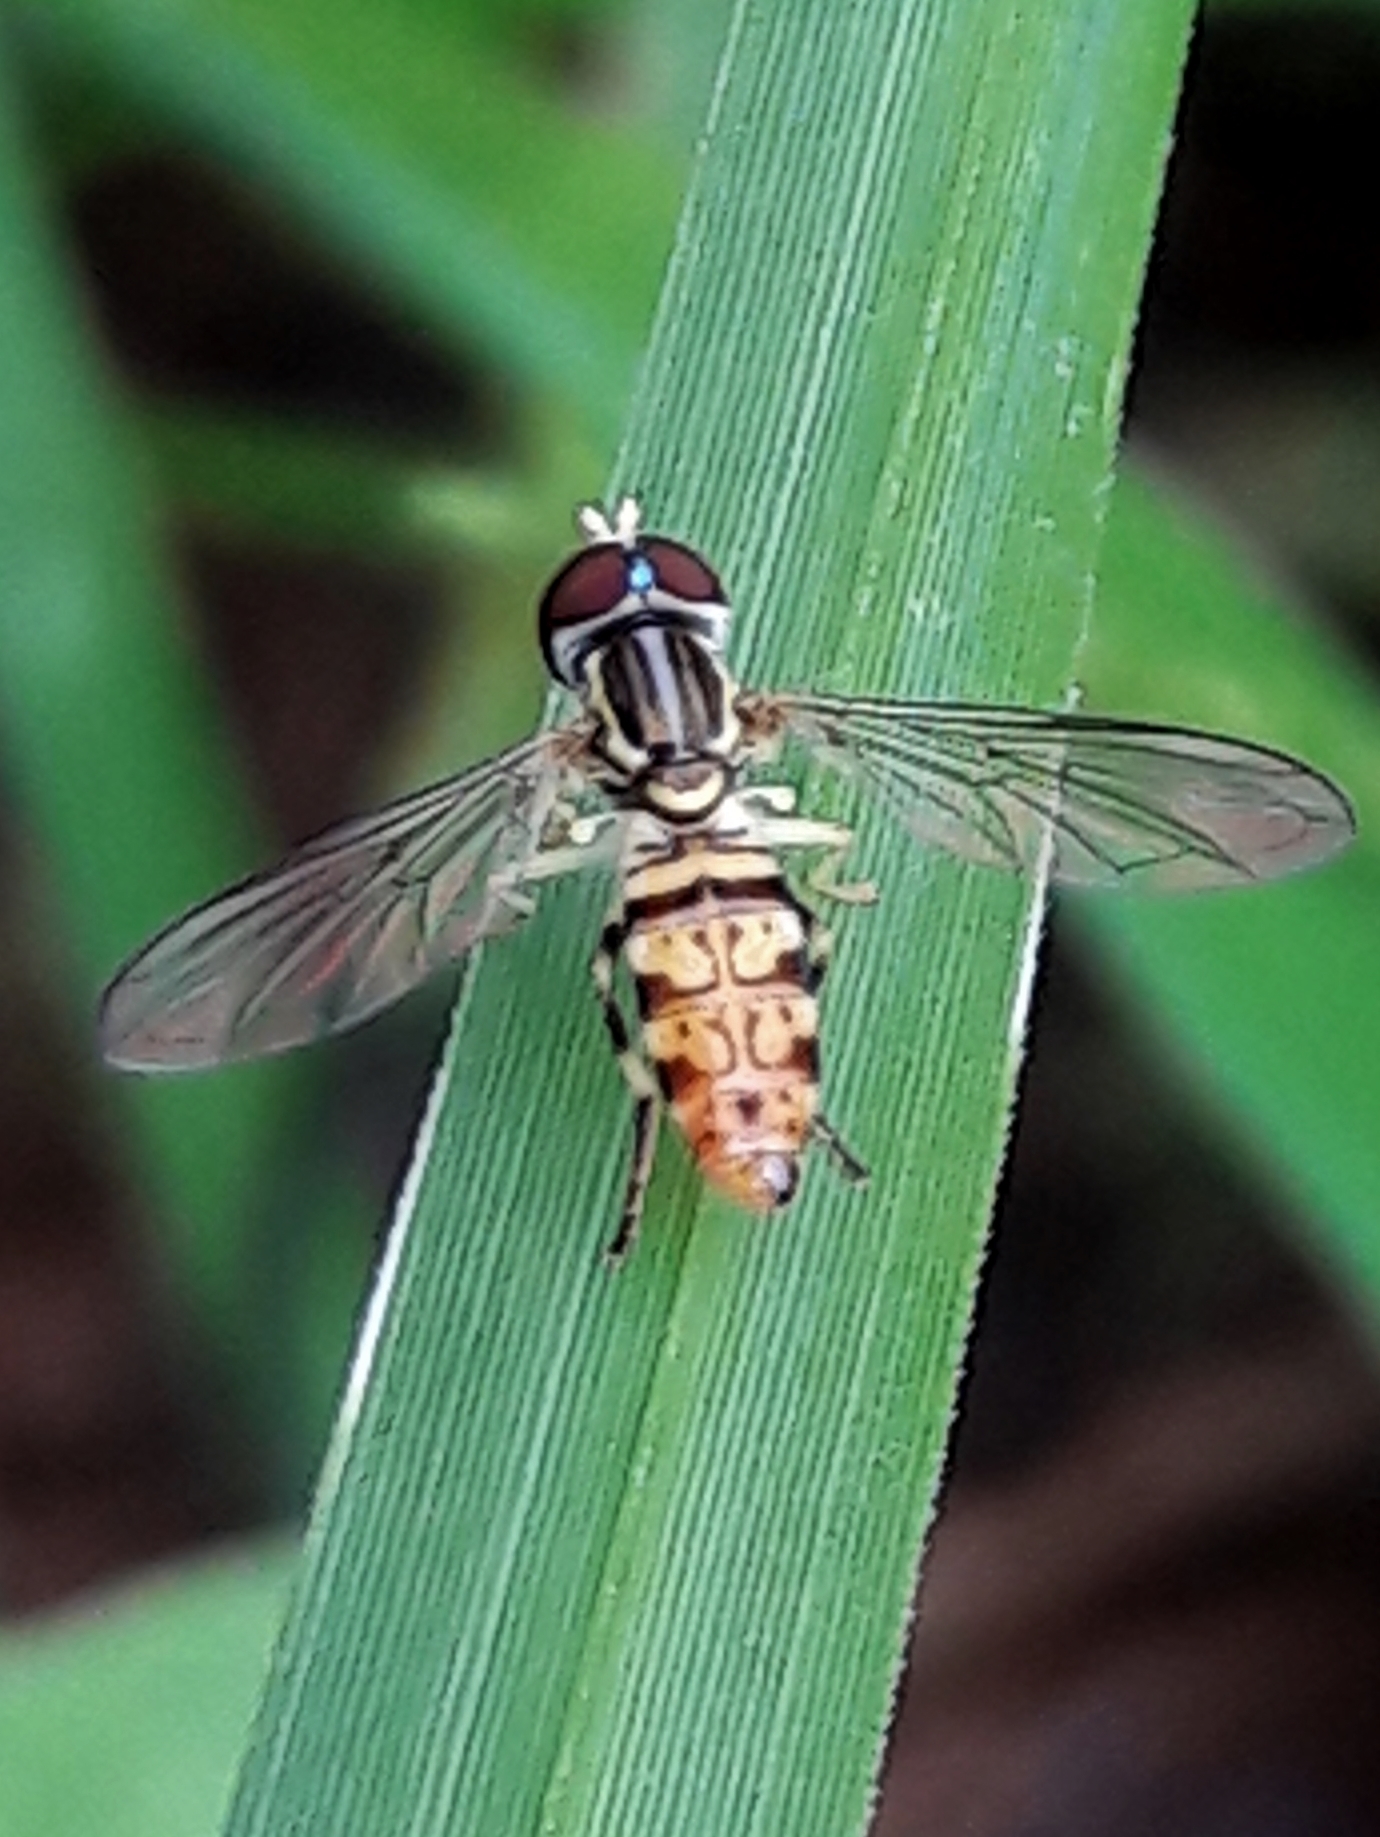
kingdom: Animalia
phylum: Arthropoda
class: Insecta
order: Diptera
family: Syrphidae
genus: Toxomerus
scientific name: Toxomerus
